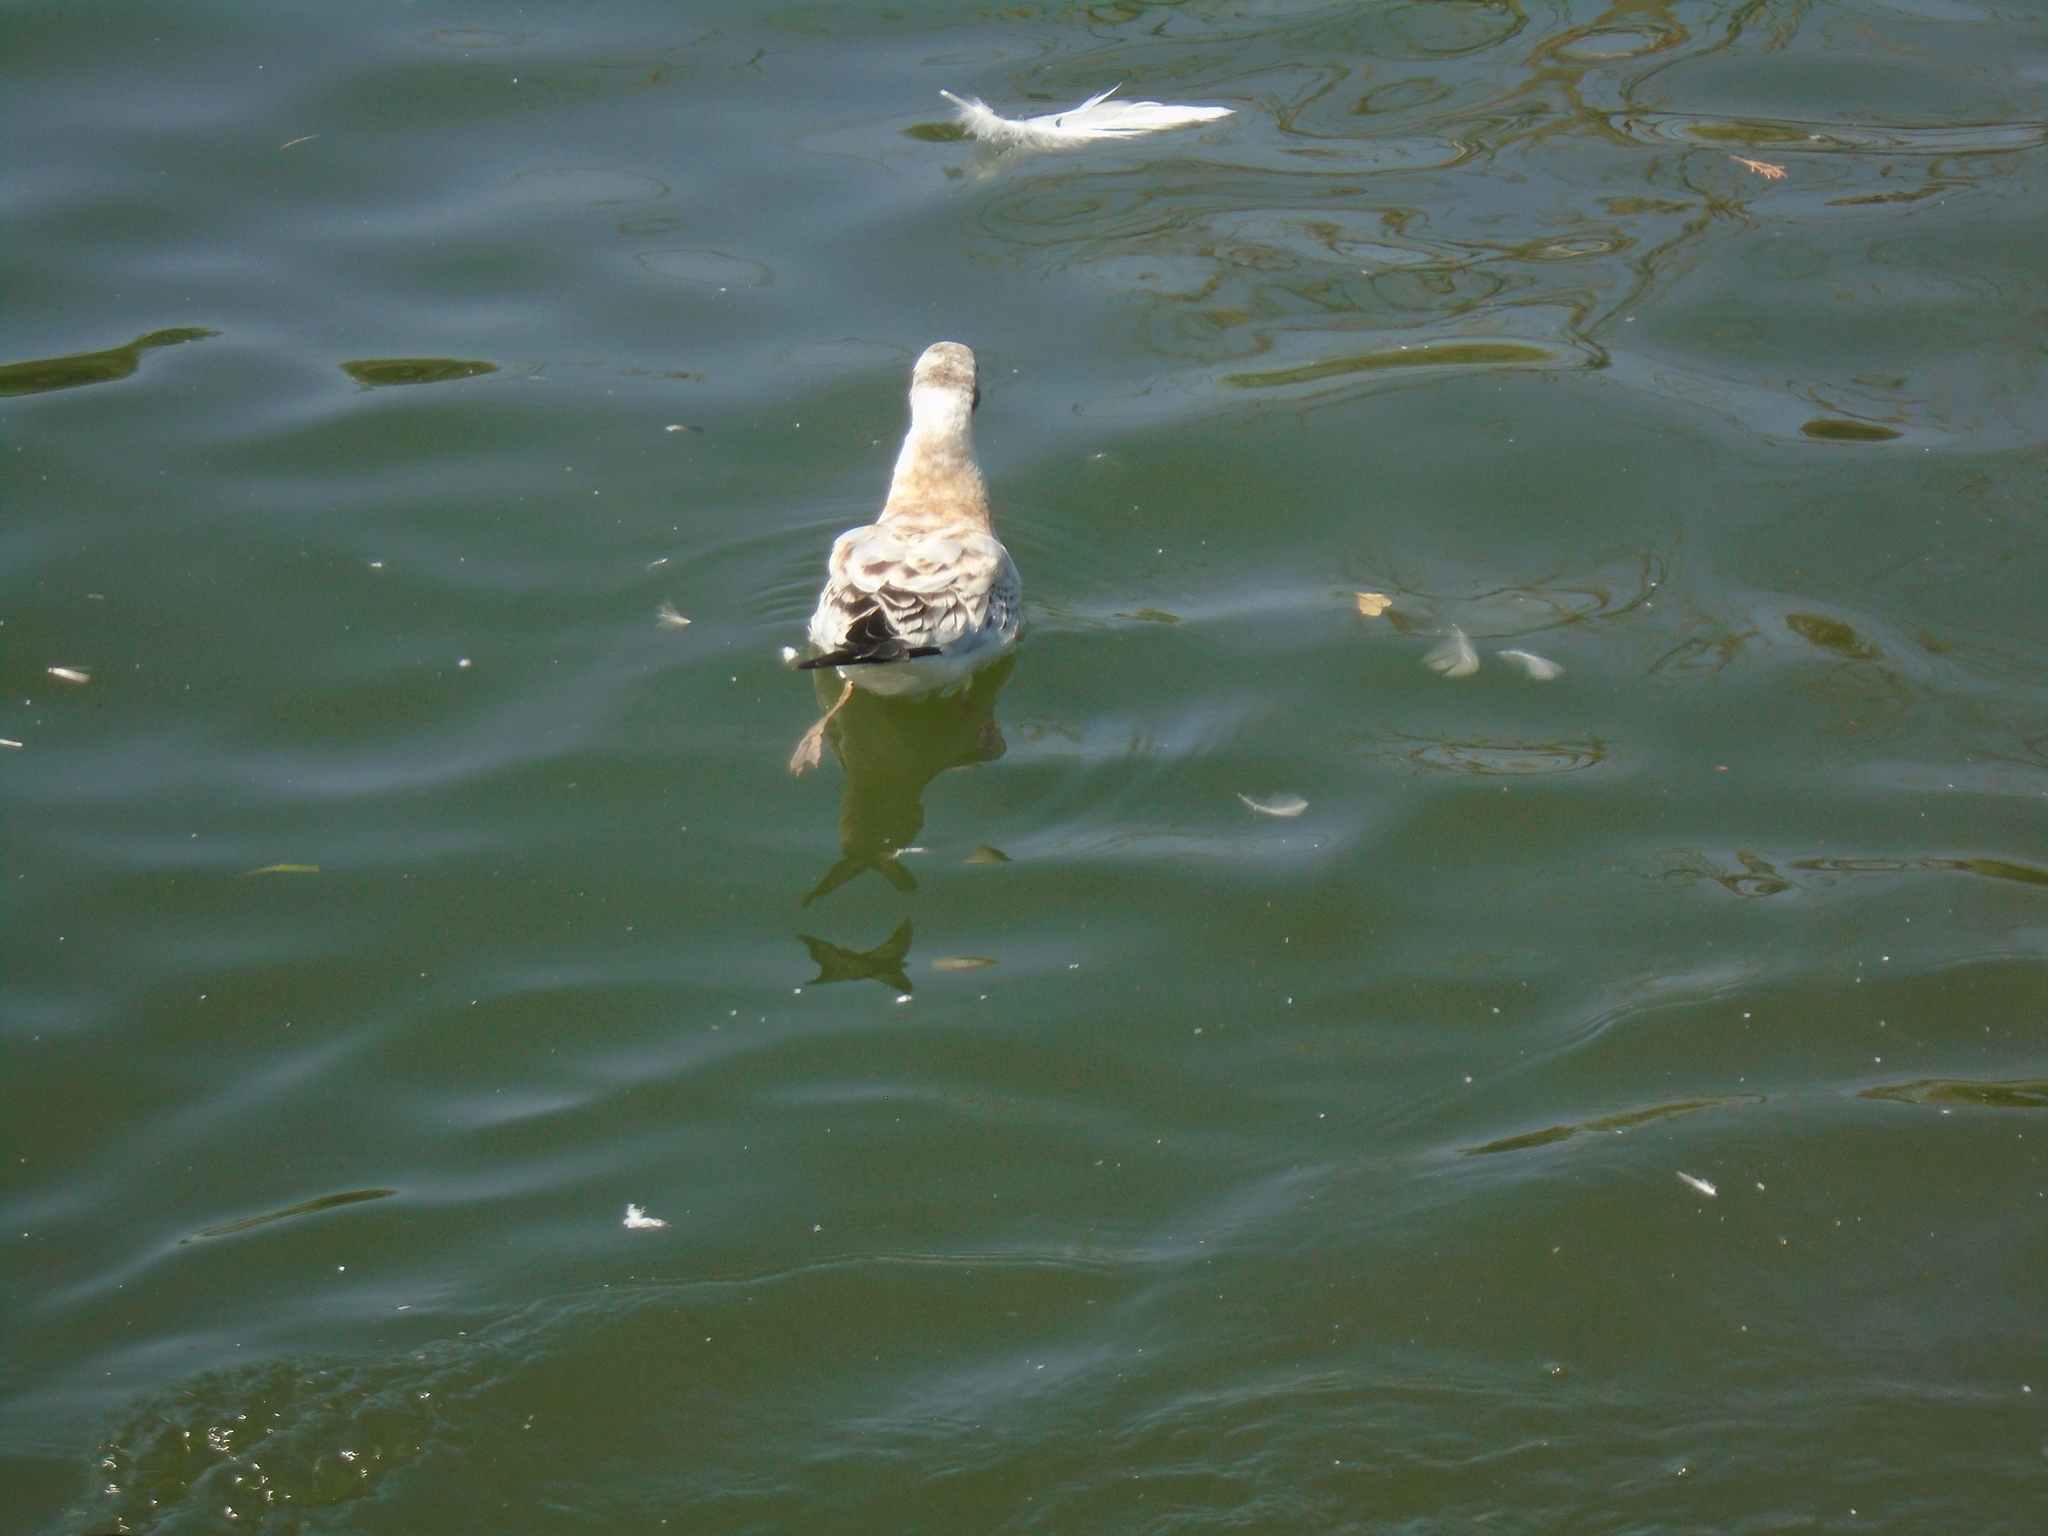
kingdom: Animalia
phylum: Chordata
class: Aves
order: Charadriiformes
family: Laridae
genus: Chroicocephalus
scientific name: Chroicocephalus ridibundus
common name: Black-headed gull
